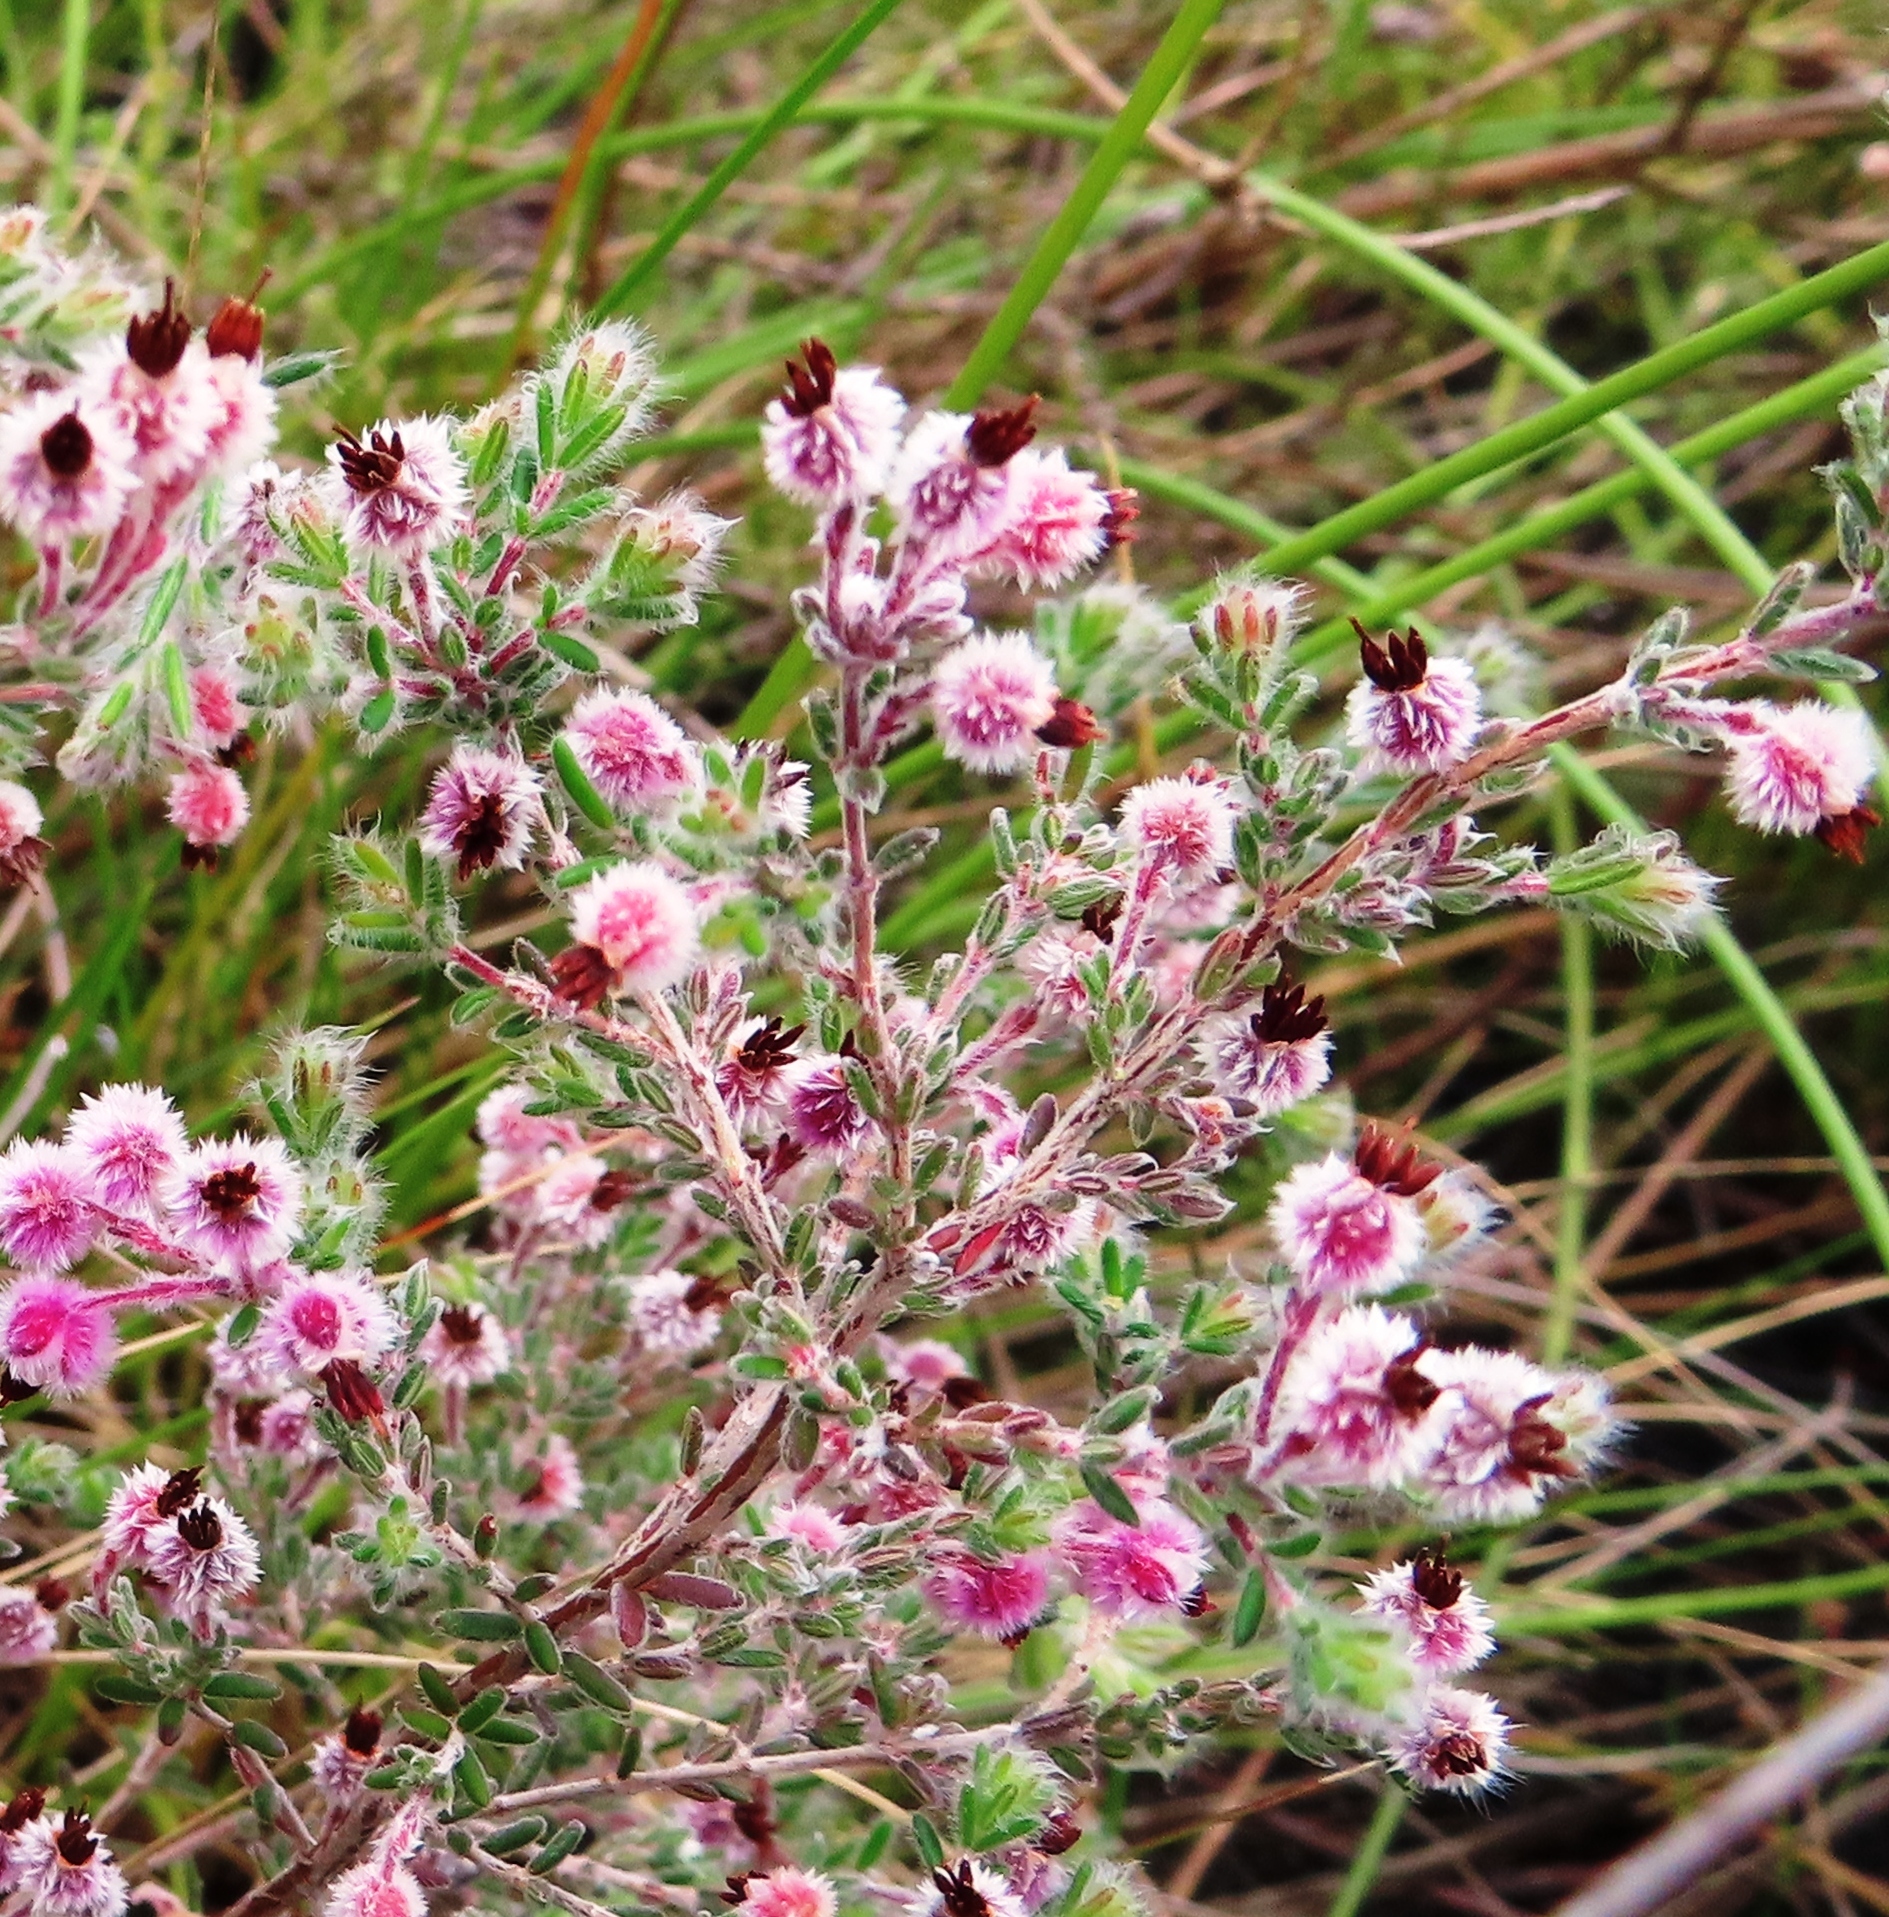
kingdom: Plantae
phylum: Tracheophyta
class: Magnoliopsida
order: Ericales
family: Ericaceae
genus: Erica
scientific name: Erica bruniades
